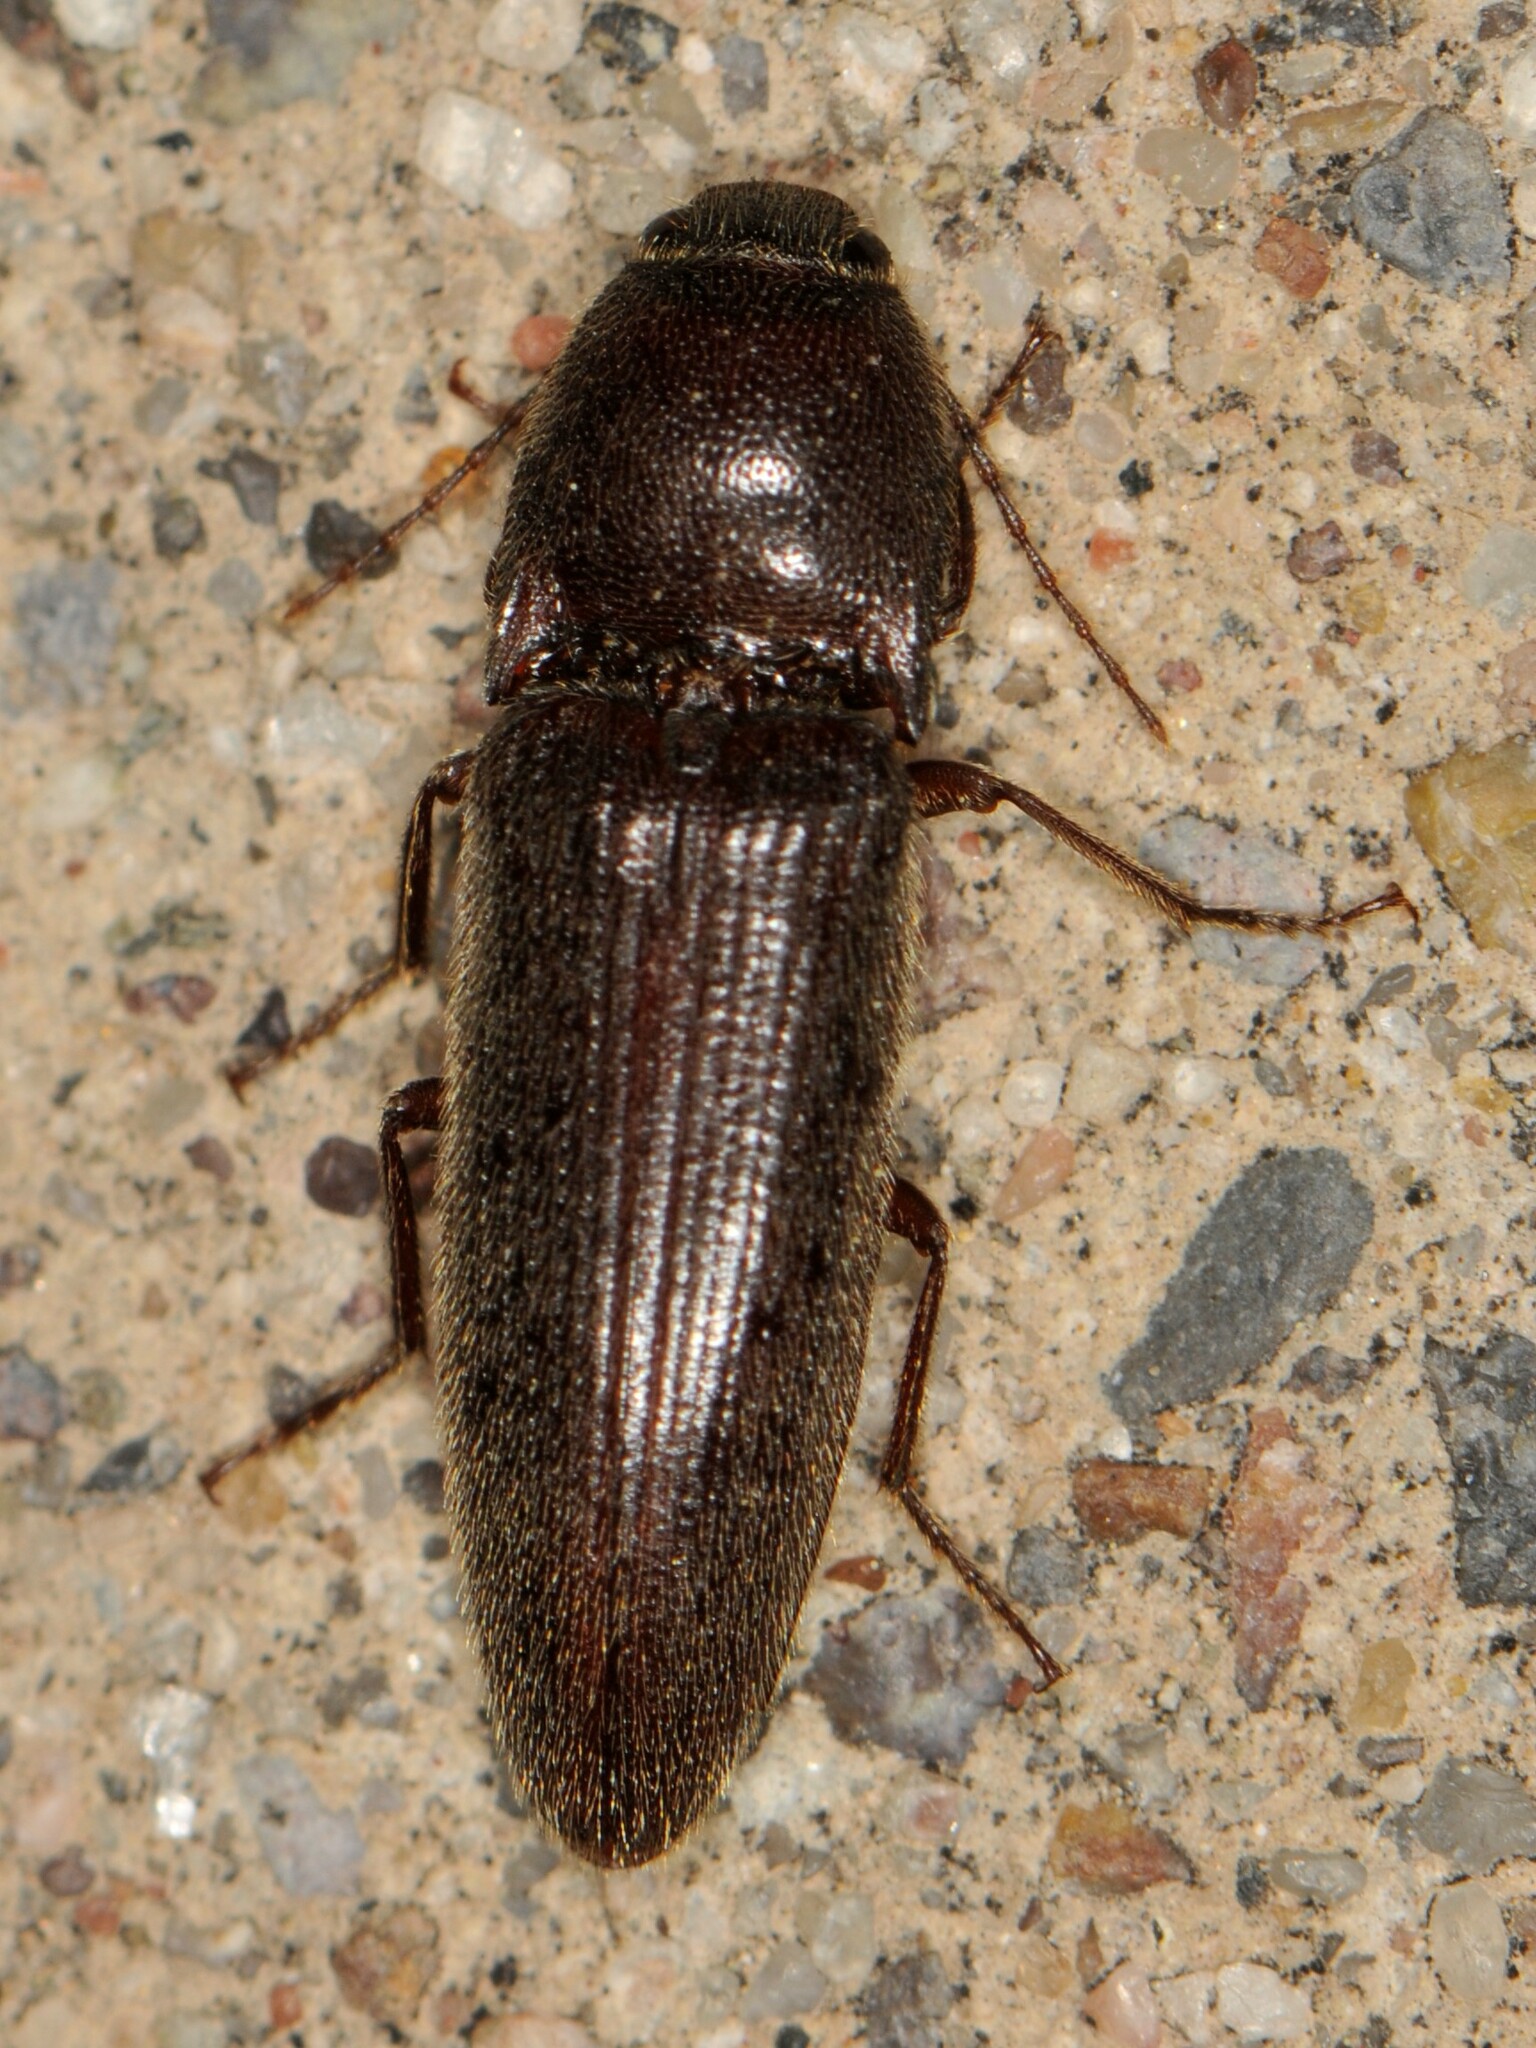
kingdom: Animalia
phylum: Arthropoda
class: Insecta
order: Coleoptera
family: Elateridae
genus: Melanotus
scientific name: Melanotus
